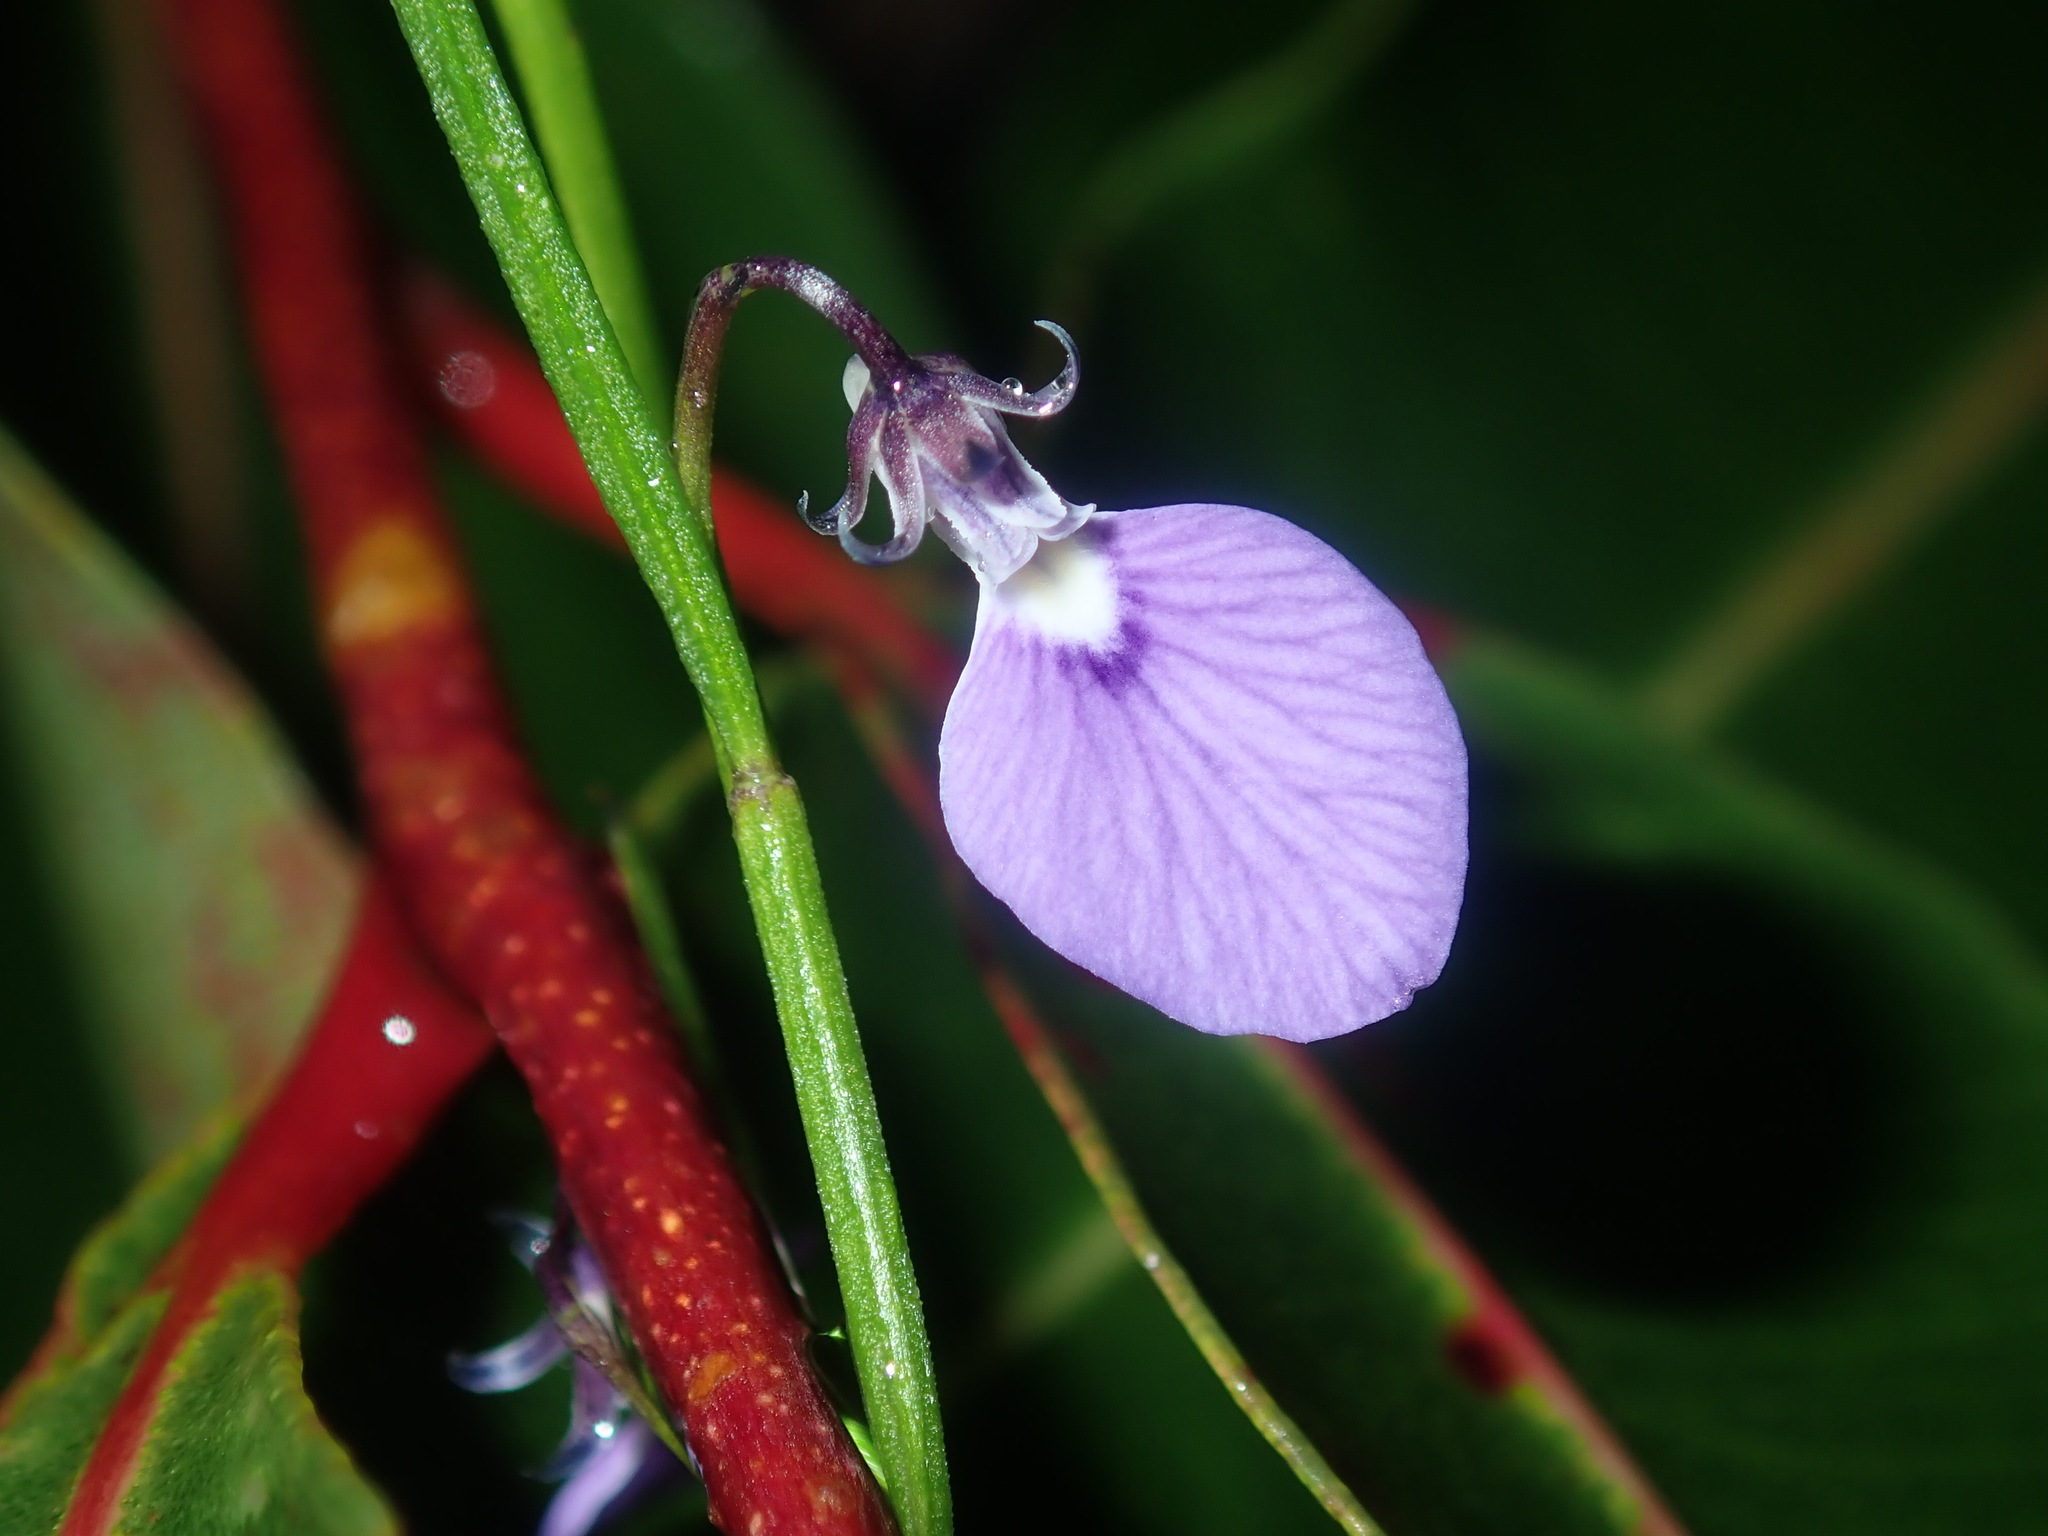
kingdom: Plantae
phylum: Tracheophyta
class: Magnoliopsida
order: Malpighiales
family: Violaceae
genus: Pigea
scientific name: Pigea monopetala
